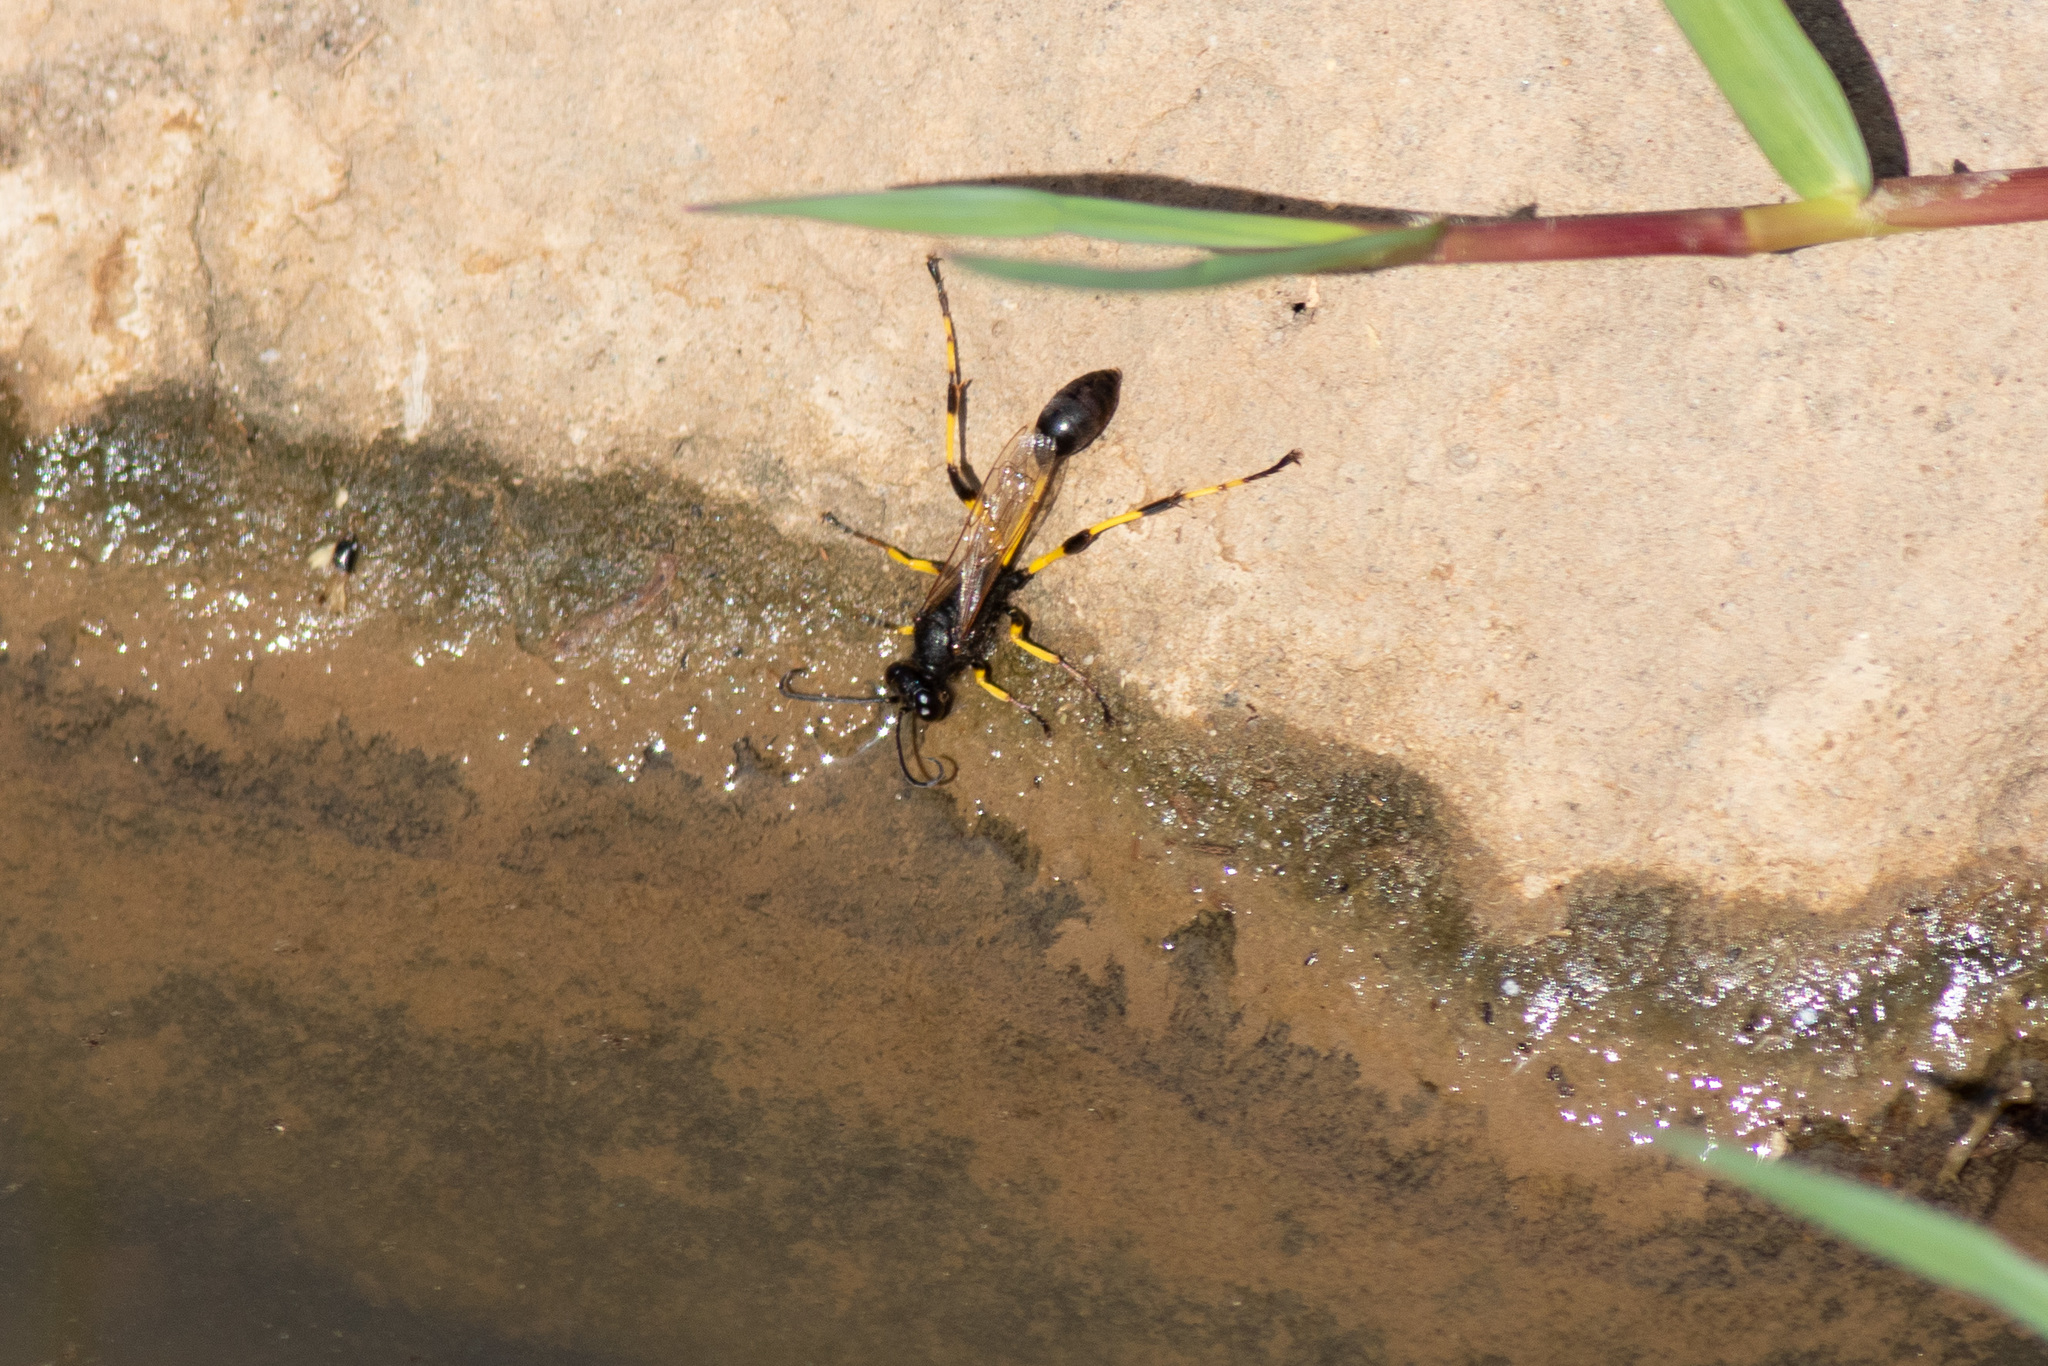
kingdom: Animalia
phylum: Arthropoda
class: Insecta
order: Hymenoptera
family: Sphecidae
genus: Sceliphron
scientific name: Sceliphron spirifex
